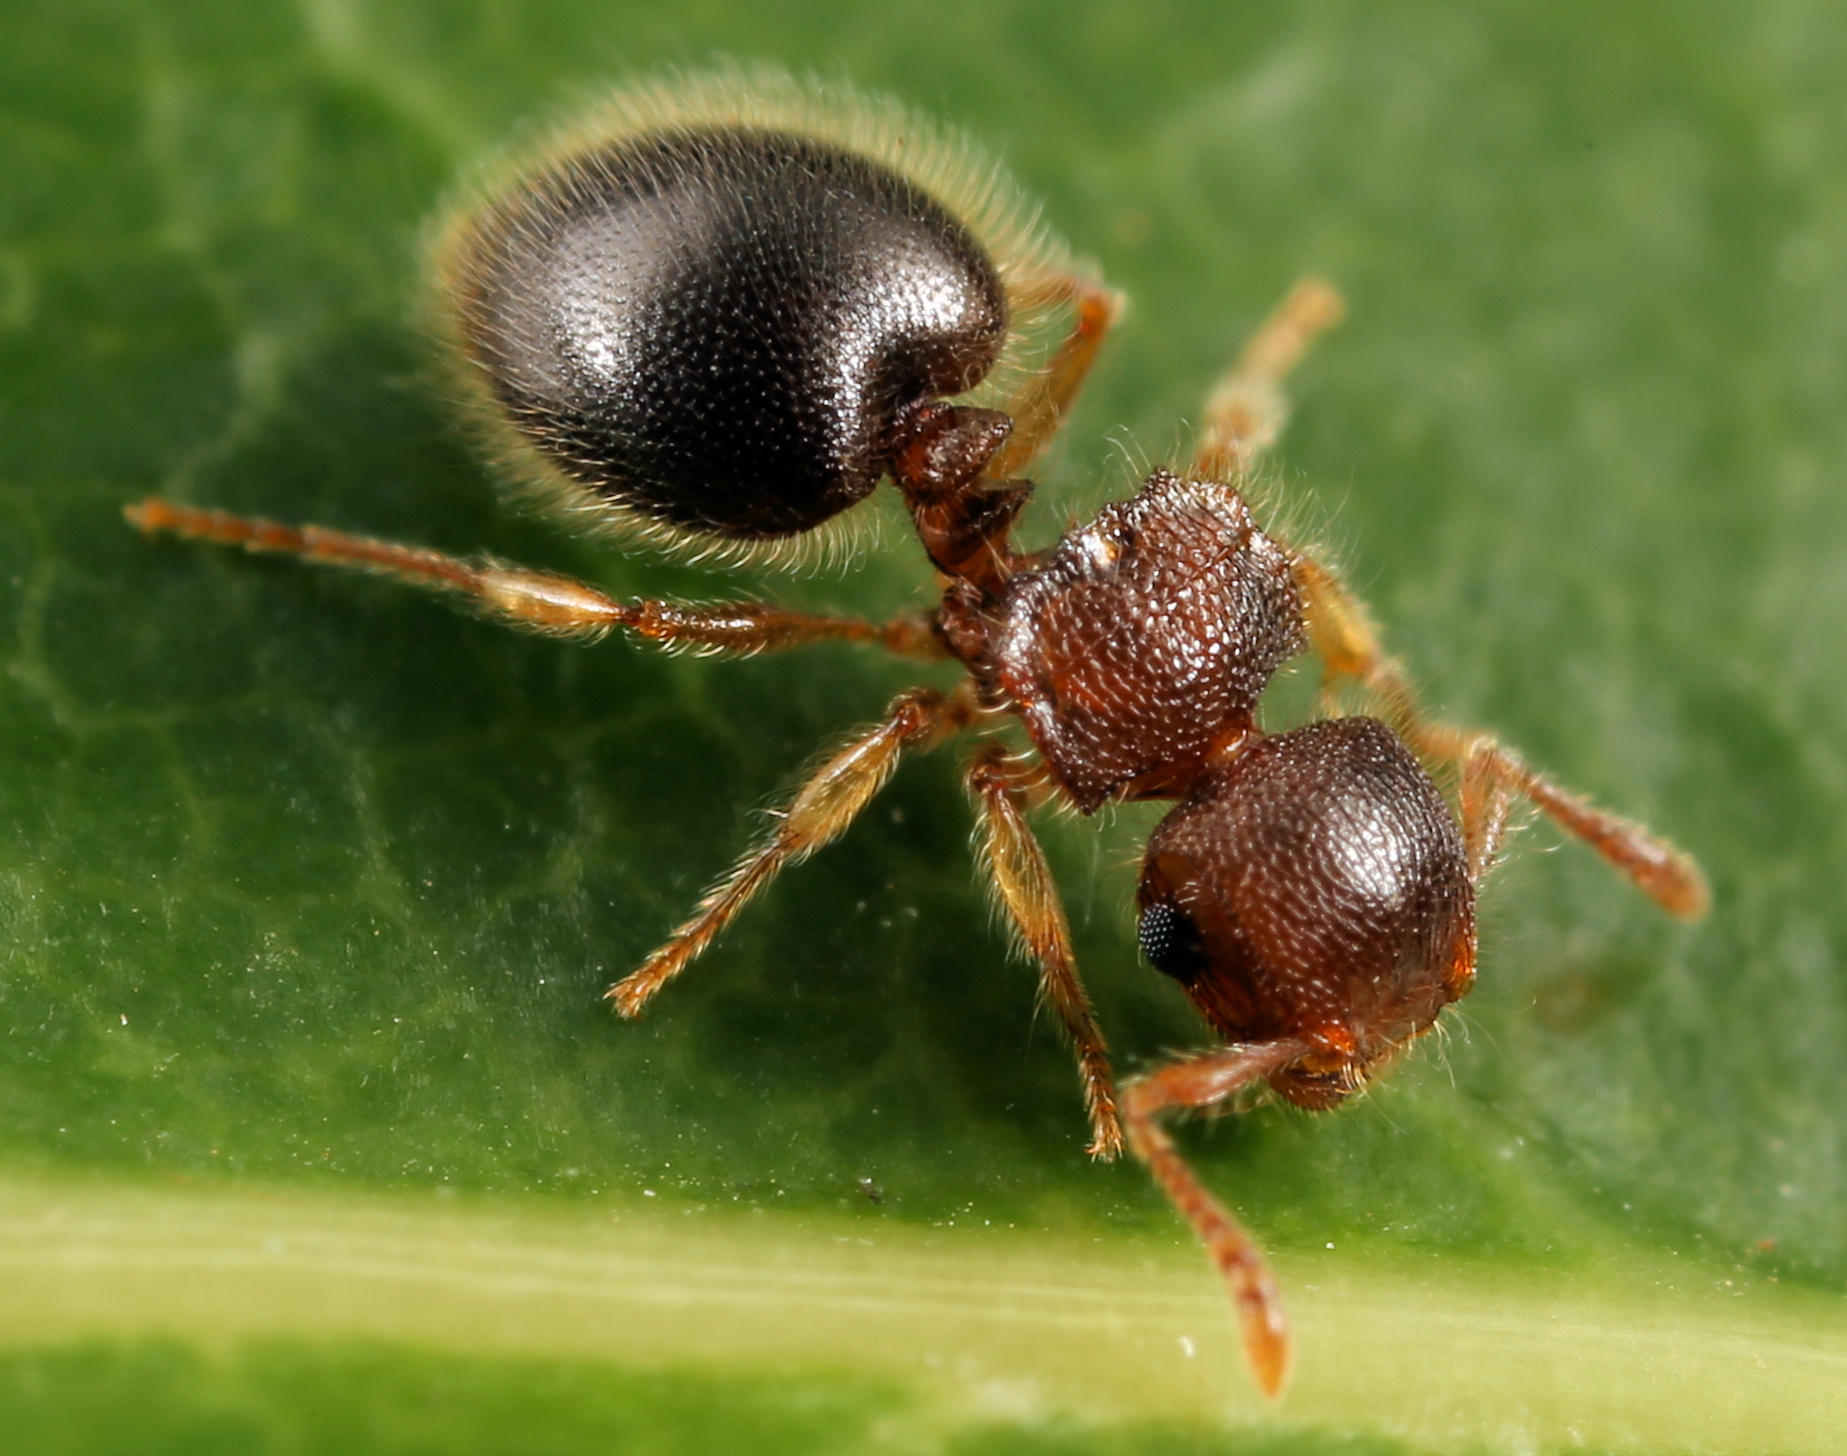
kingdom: Animalia
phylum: Arthropoda
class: Insecta
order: Hymenoptera
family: Formicidae
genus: Meranoplus
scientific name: Meranoplus inermis
